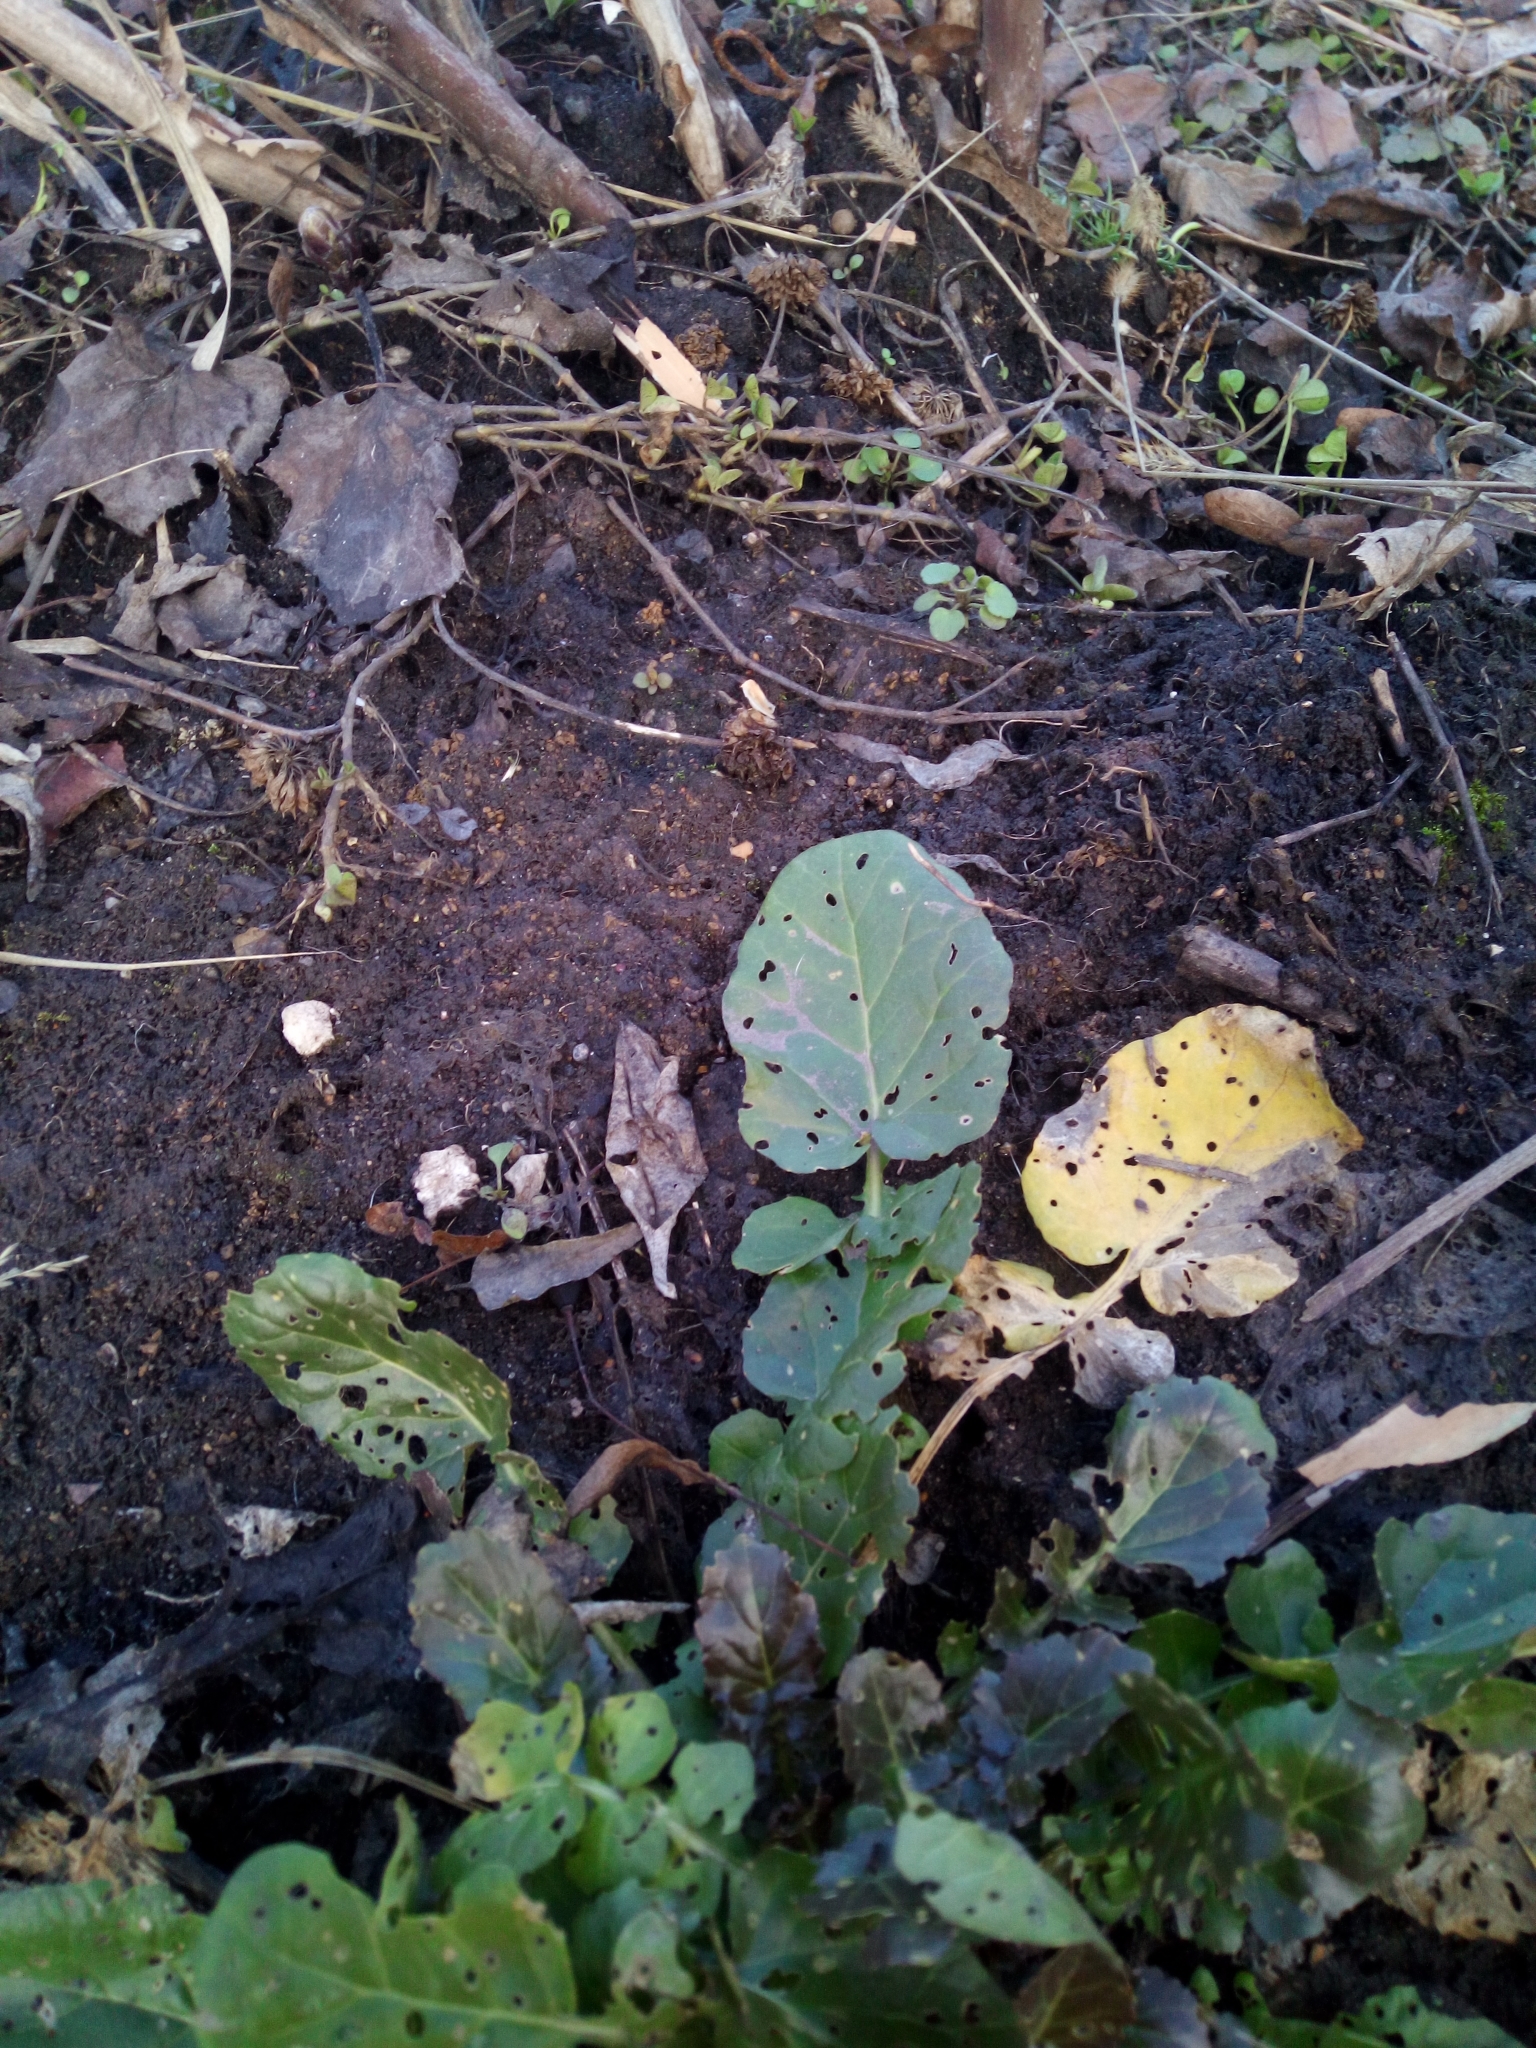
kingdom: Plantae
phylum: Tracheophyta
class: Magnoliopsida
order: Brassicales
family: Brassicaceae
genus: Barbarea
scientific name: Barbarea vulgaris
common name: Cressy-greens
